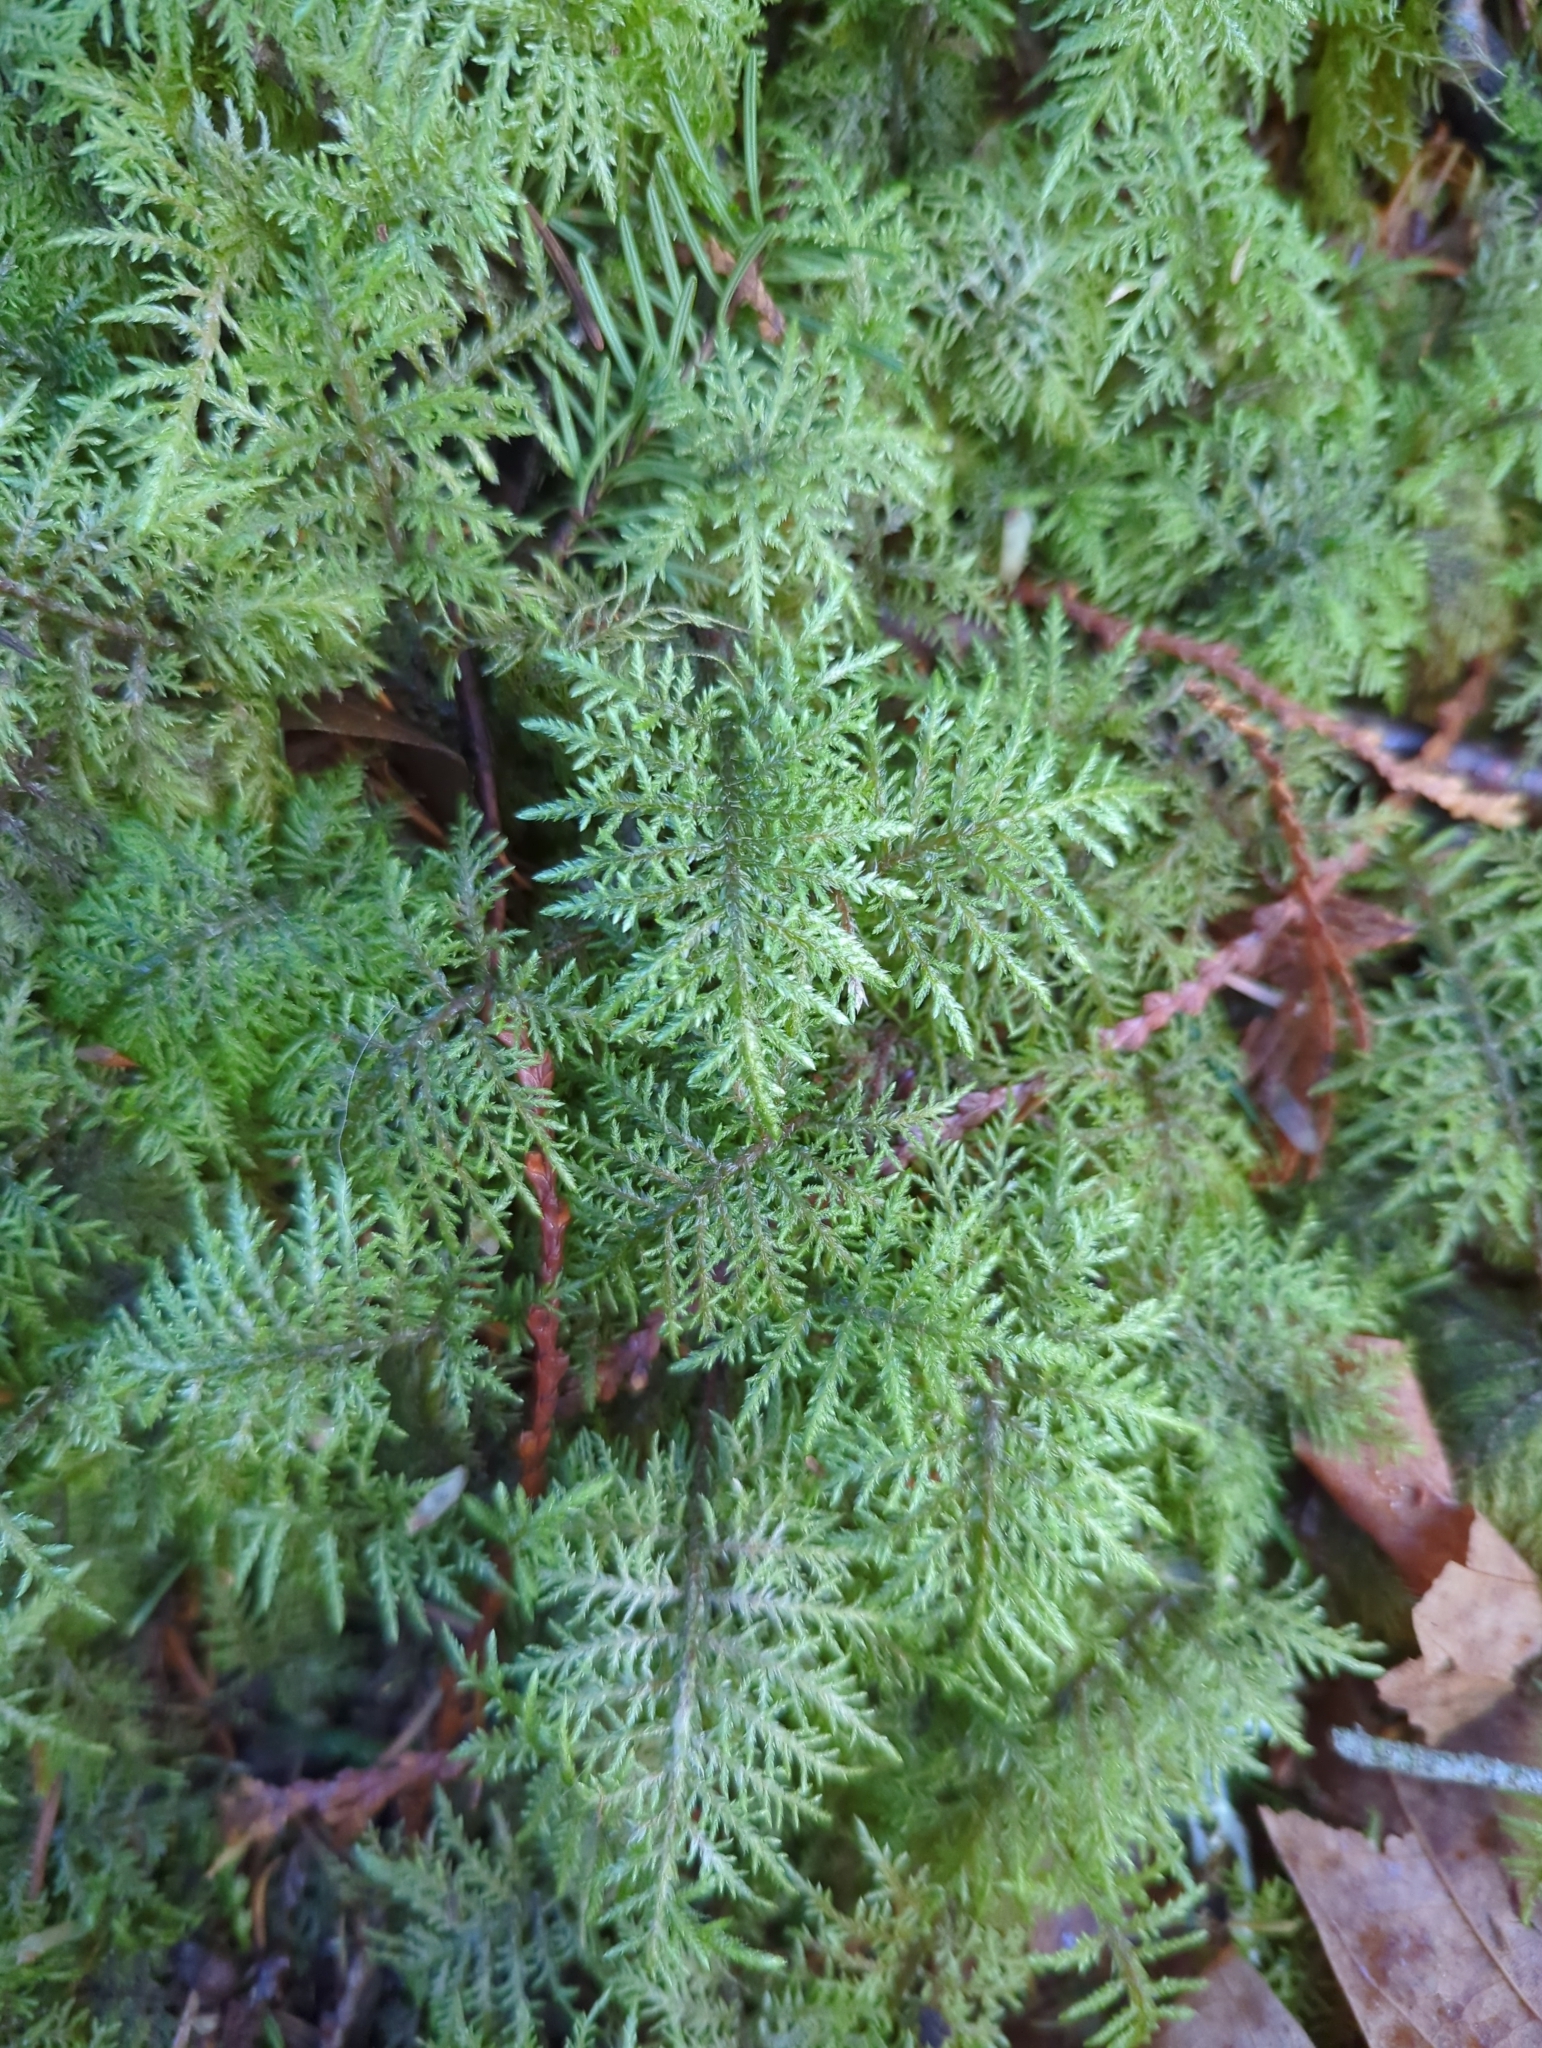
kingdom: Plantae
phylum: Bryophyta
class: Bryopsida
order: Hypnales
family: Hylocomiaceae
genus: Hylocomium
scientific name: Hylocomium splendens
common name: Stairstep moss
